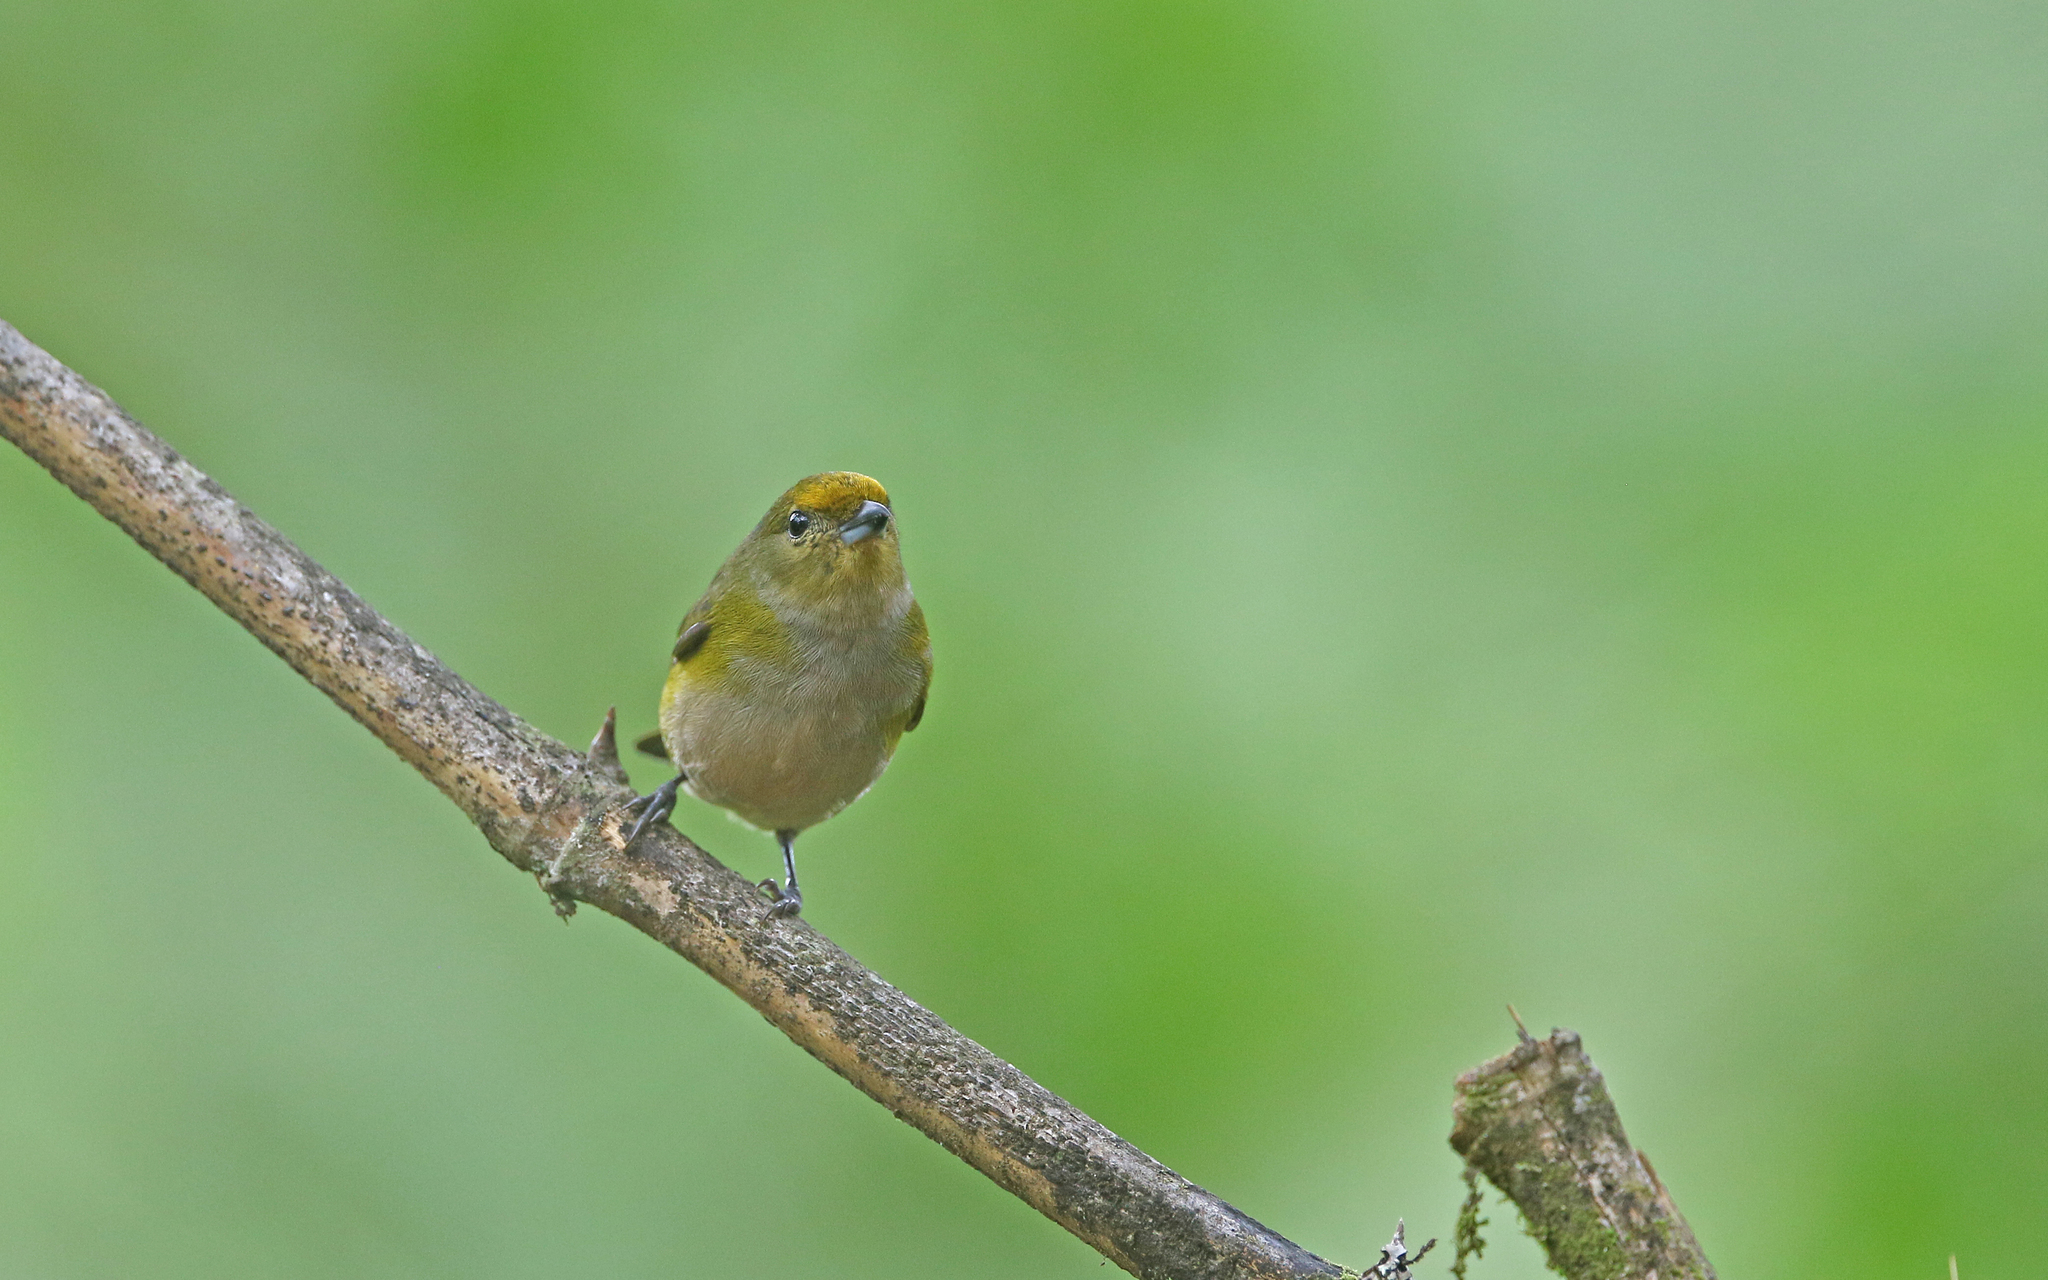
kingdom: Animalia
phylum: Chordata
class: Aves
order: Passeriformes
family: Fringillidae
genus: Euphonia
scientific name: Euphonia mesochrysa
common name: Bronze-green euphonia
